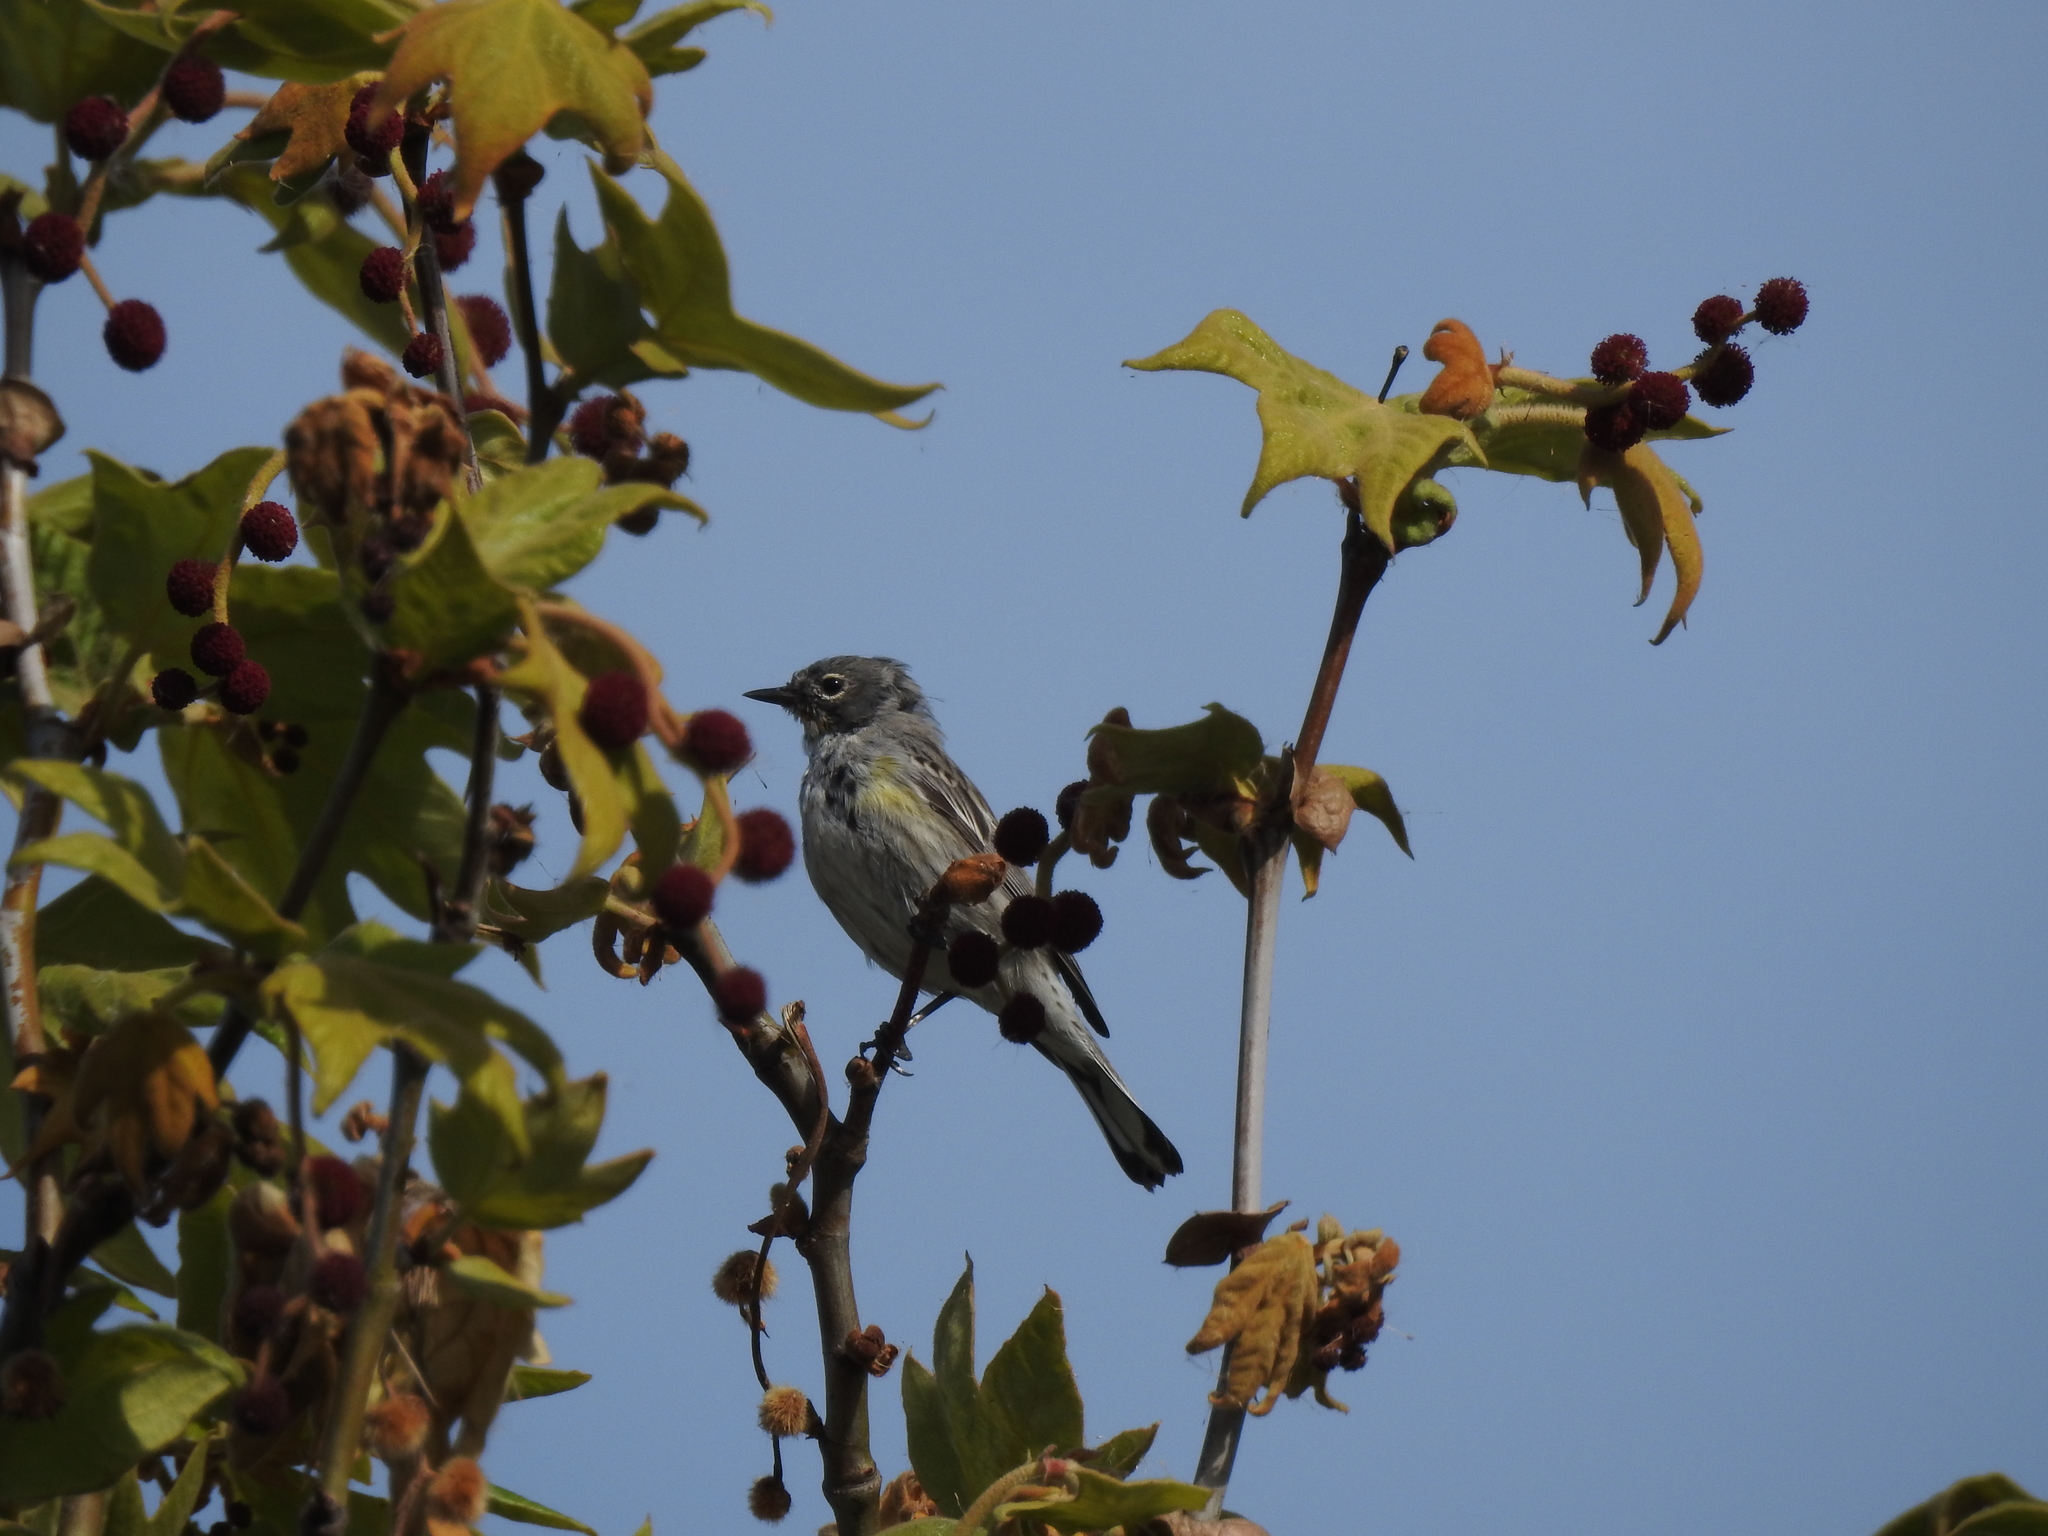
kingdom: Animalia
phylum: Chordata
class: Aves
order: Passeriformes
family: Parulidae
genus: Setophaga
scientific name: Setophaga coronata
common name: Myrtle warbler
